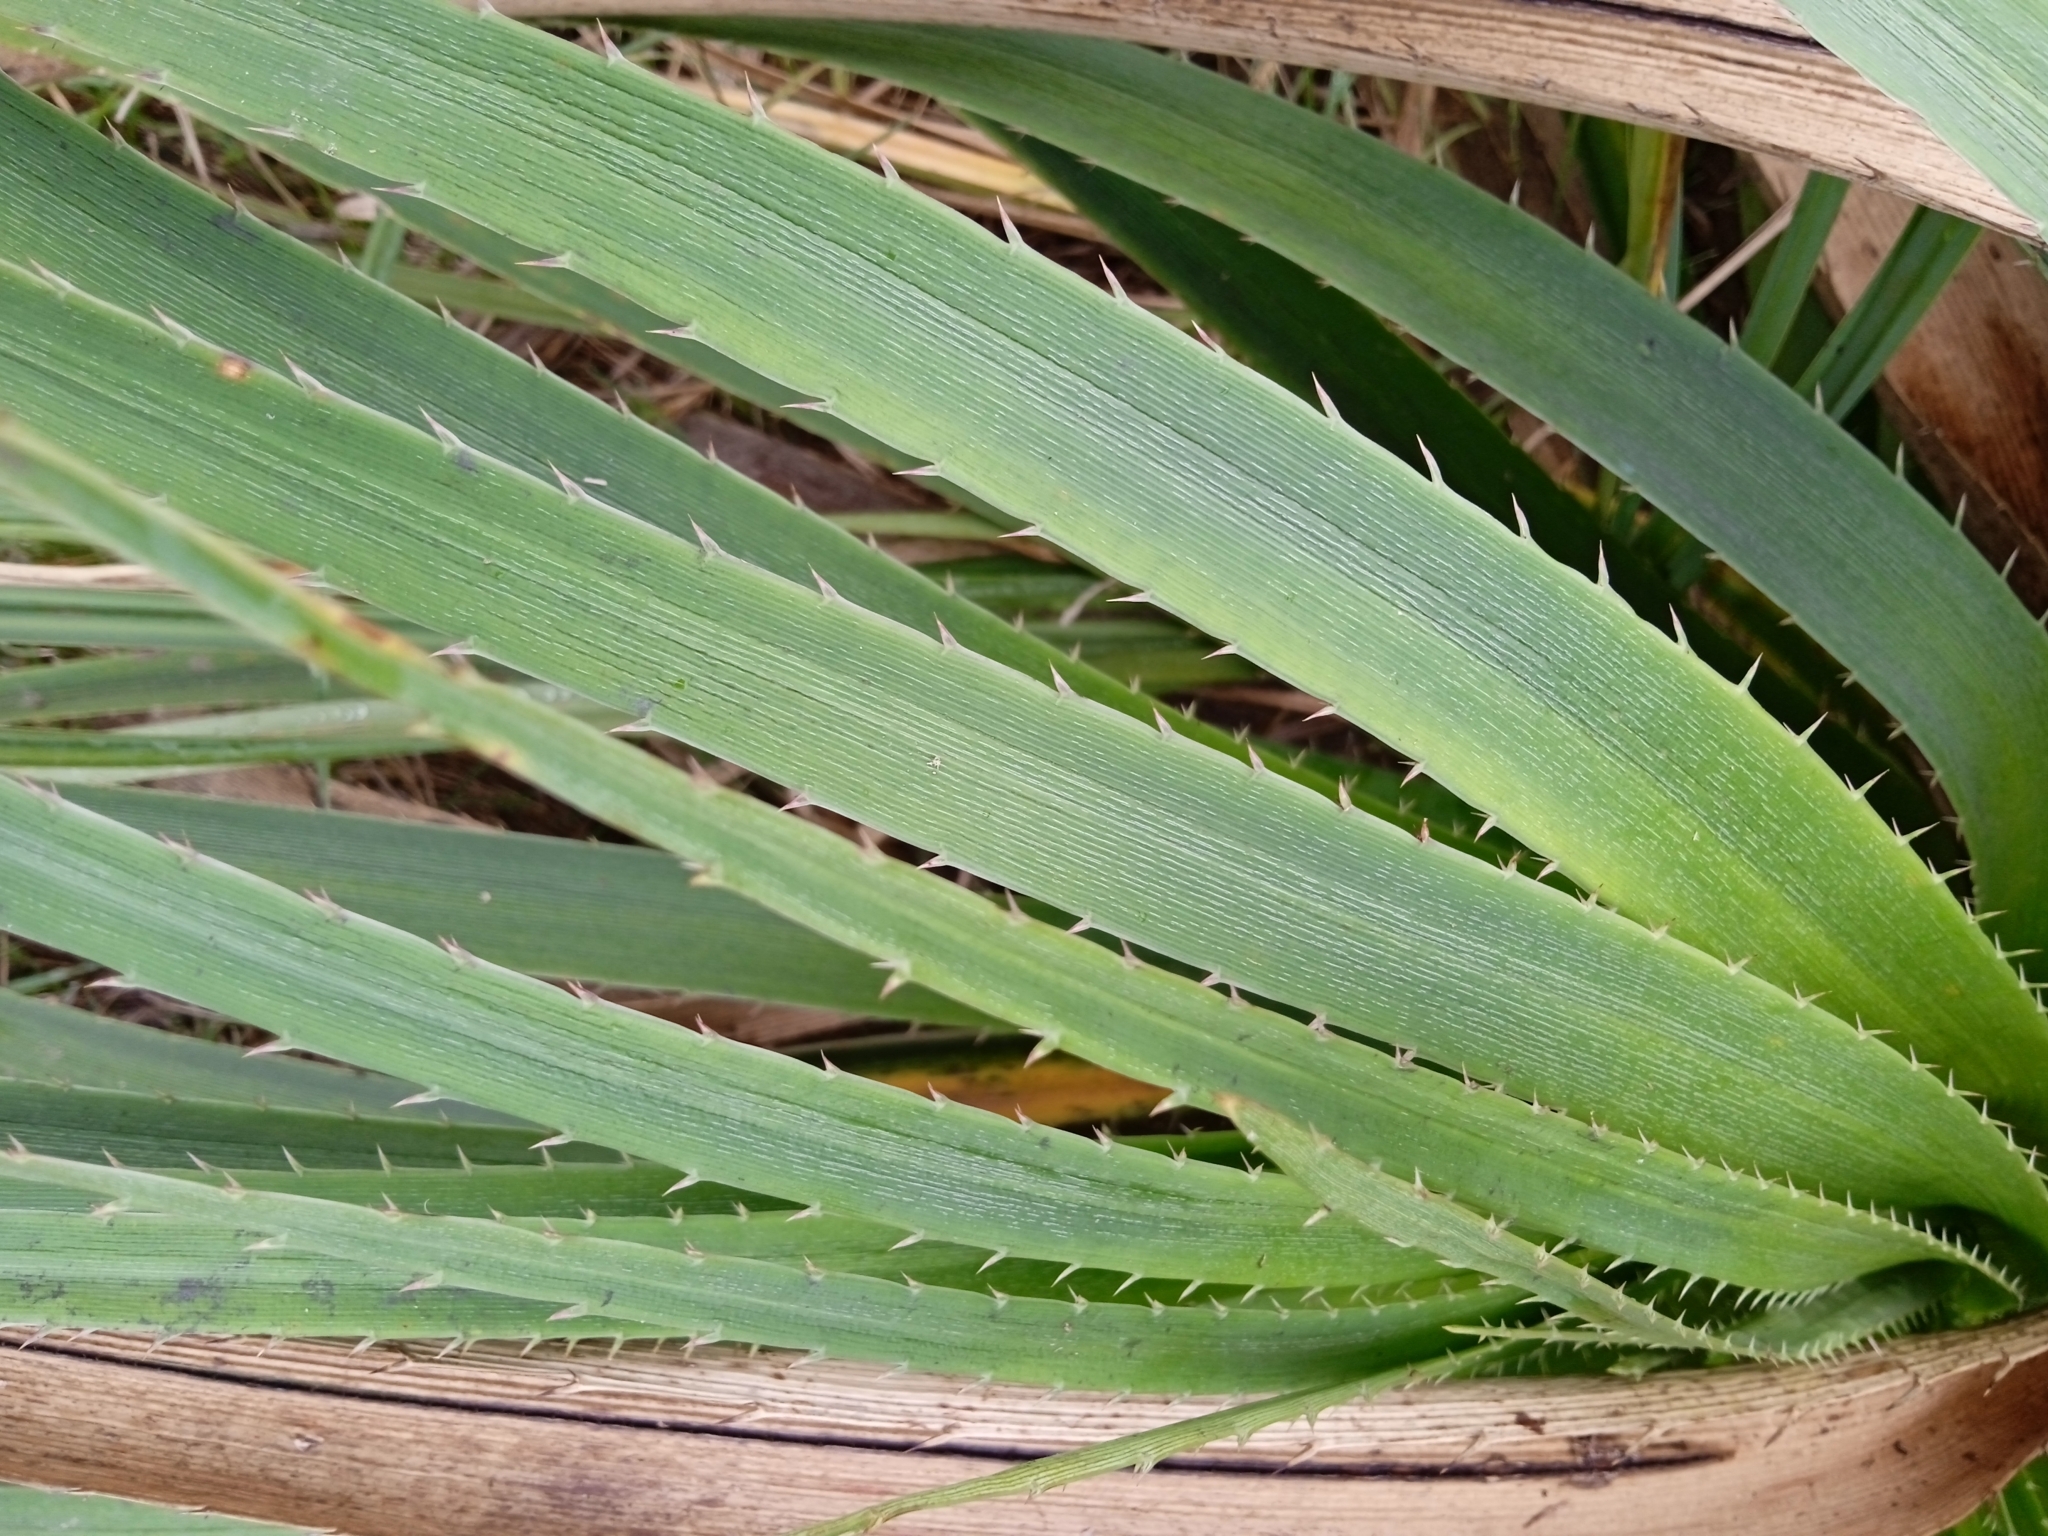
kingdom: Plantae
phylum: Tracheophyta
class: Magnoliopsida
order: Apiales
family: Apiaceae
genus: Eryngium
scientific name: Eryngium eburneum
